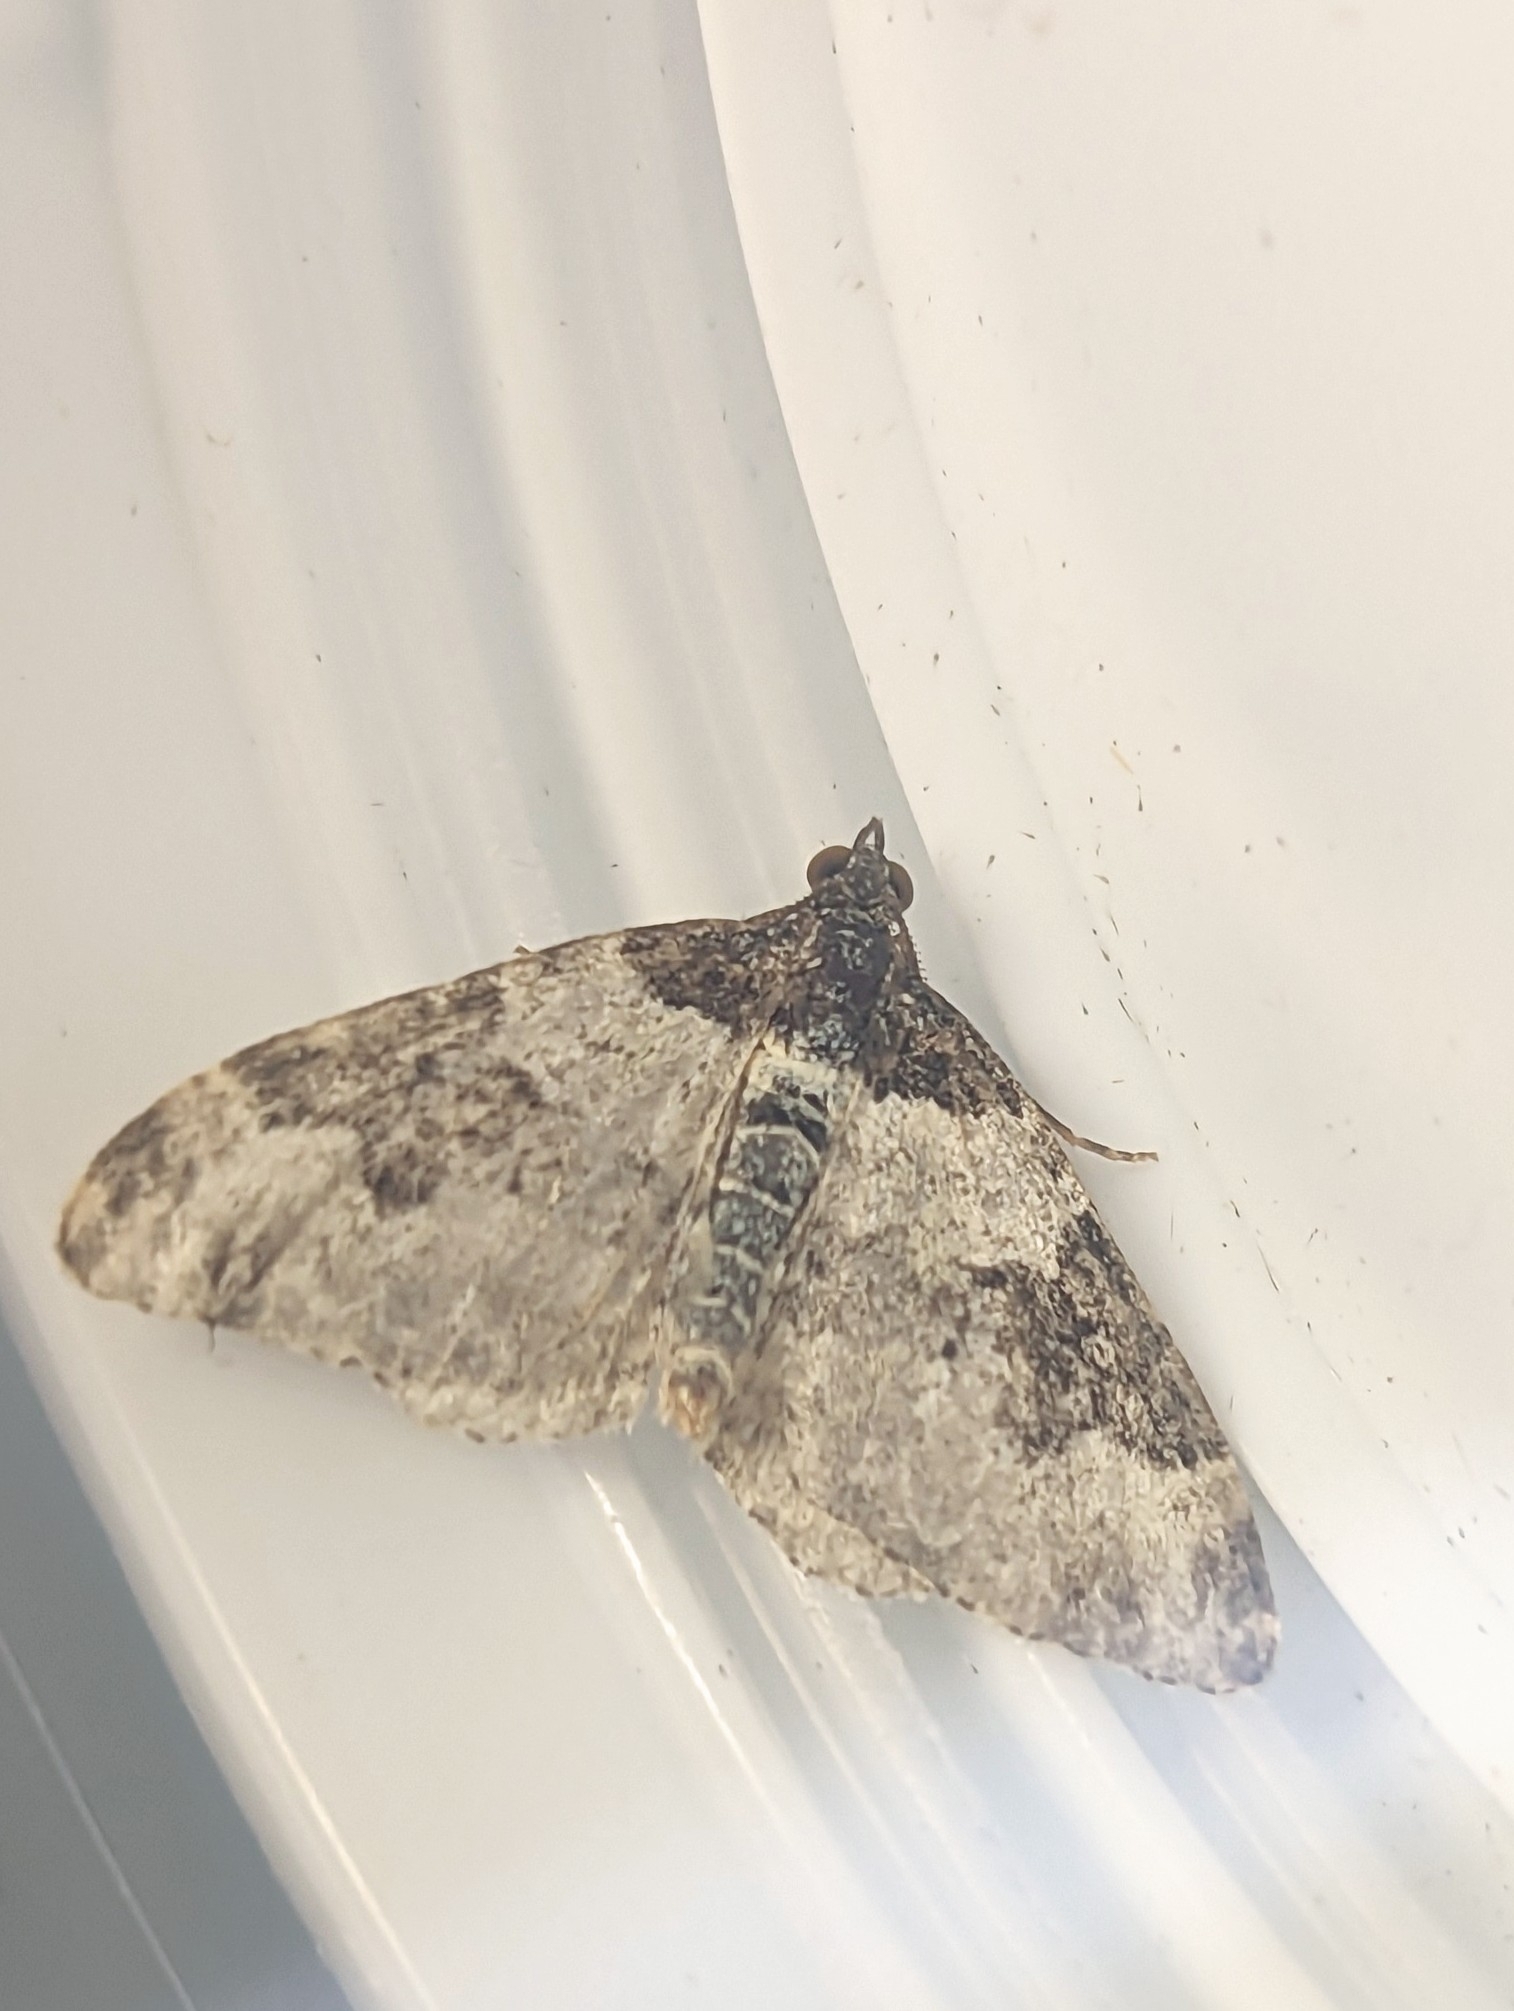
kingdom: Animalia
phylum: Arthropoda
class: Insecta
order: Lepidoptera
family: Geometridae
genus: Xanthorhoe
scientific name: Xanthorhoe fluctuata
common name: Garden carpet
